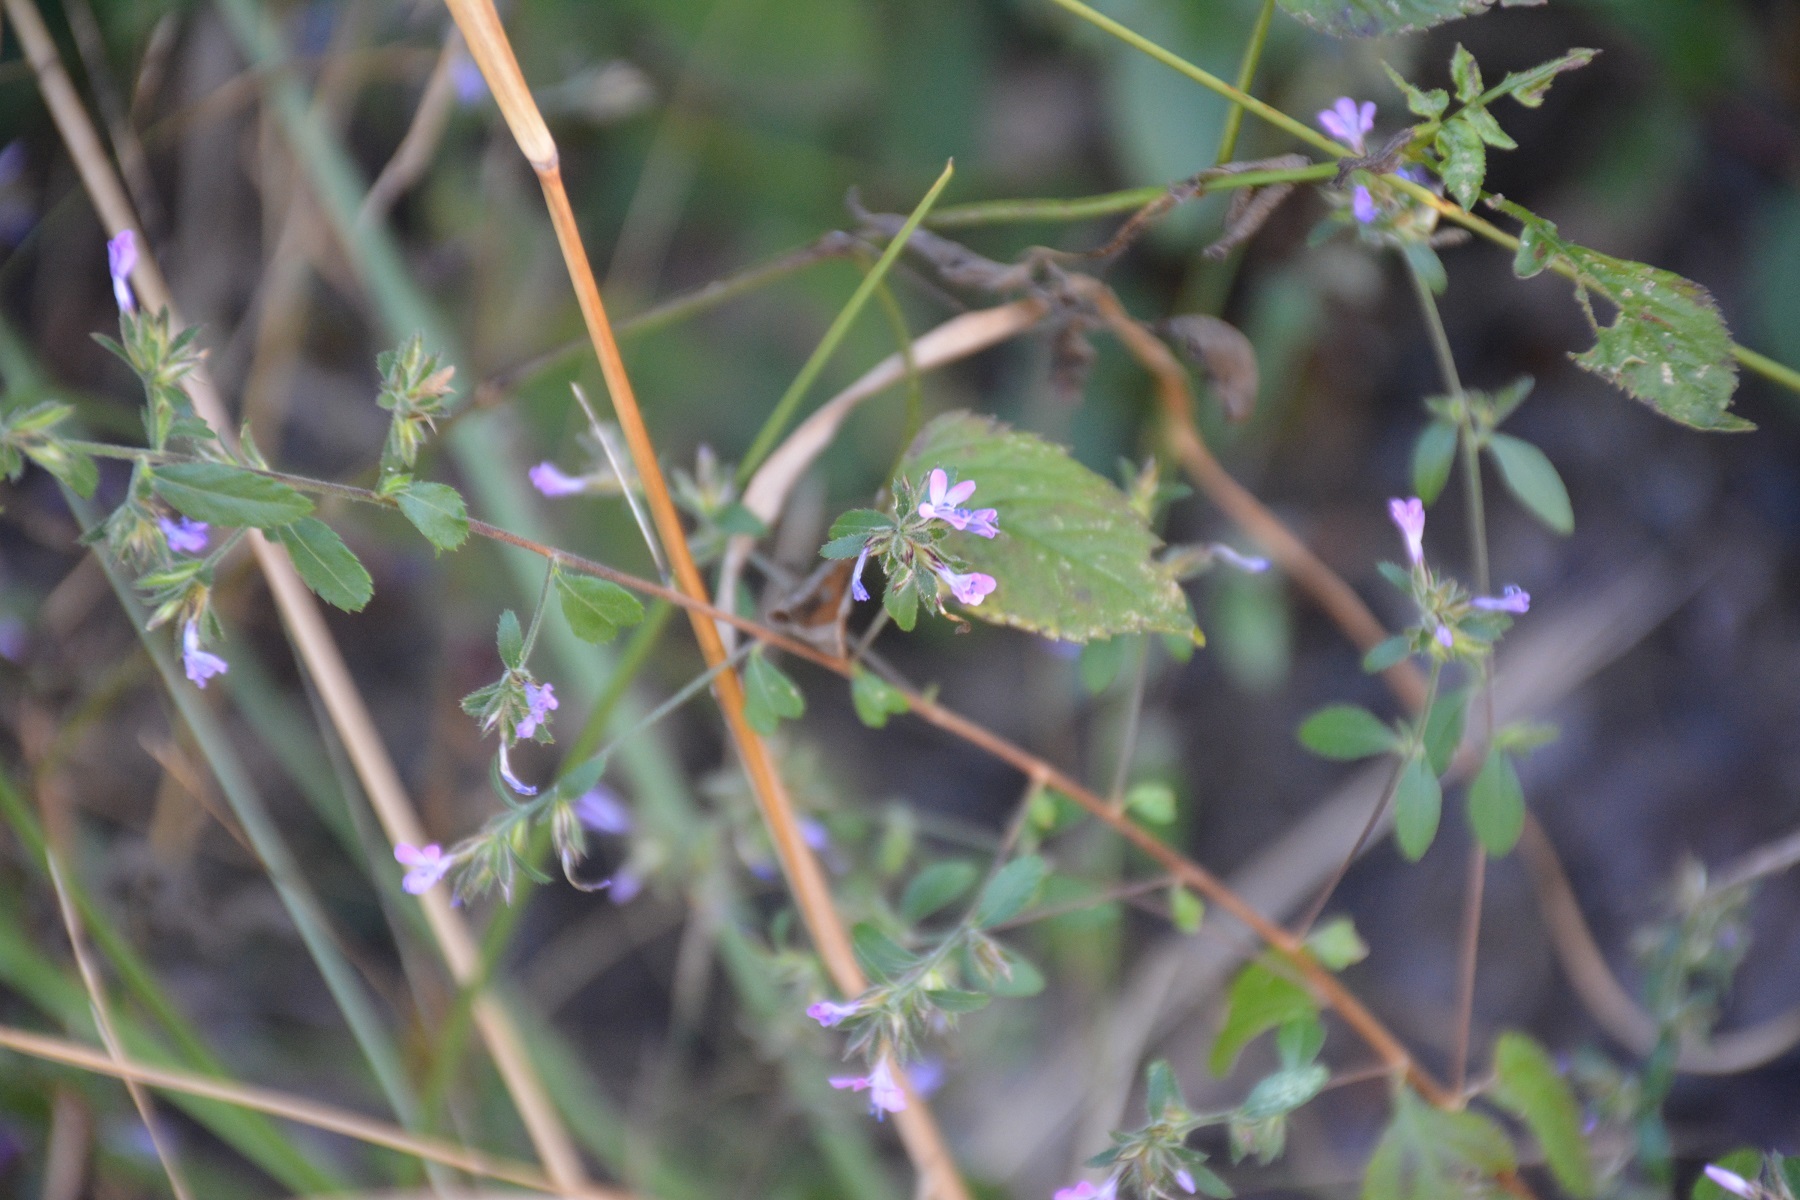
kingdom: Plantae
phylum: Tracheophyta
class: Magnoliopsida
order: Ericales
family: Polemoniaceae
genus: Loeselia
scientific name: Loeselia glandulosa
